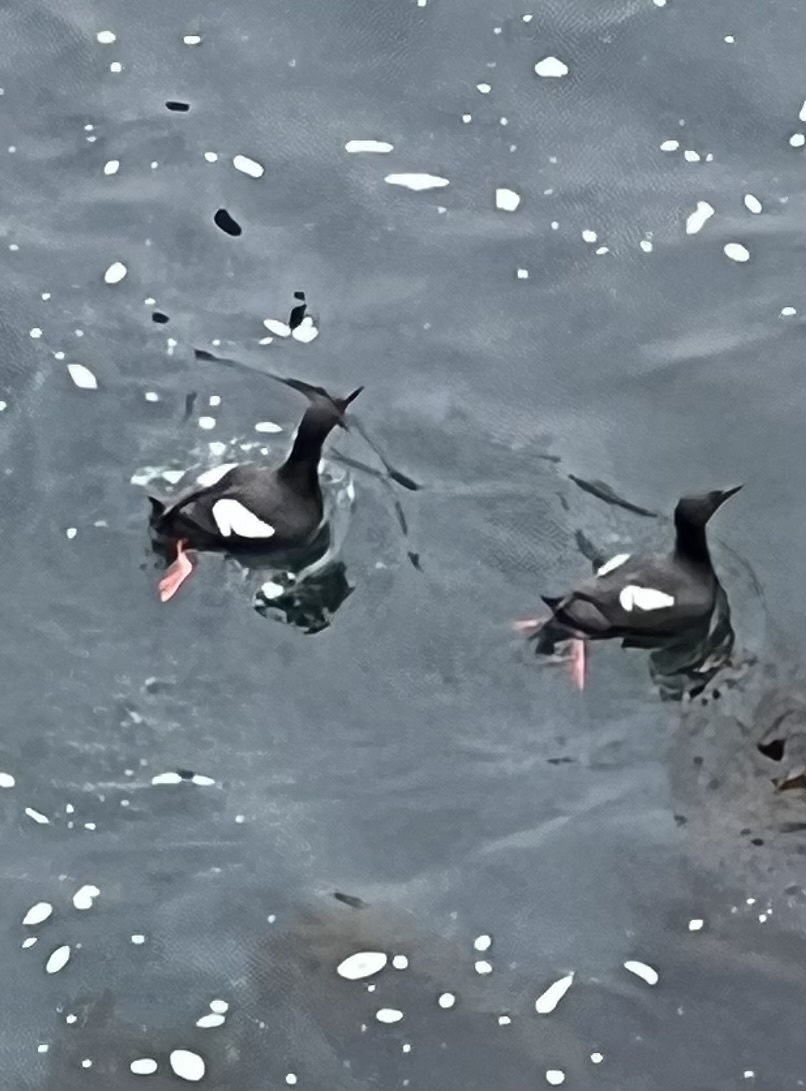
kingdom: Animalia
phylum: Chordata
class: Aves
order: Charadriiformes
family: Alcidae
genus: Cepphus
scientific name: Cepphus columba
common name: Pigeon guillemot
